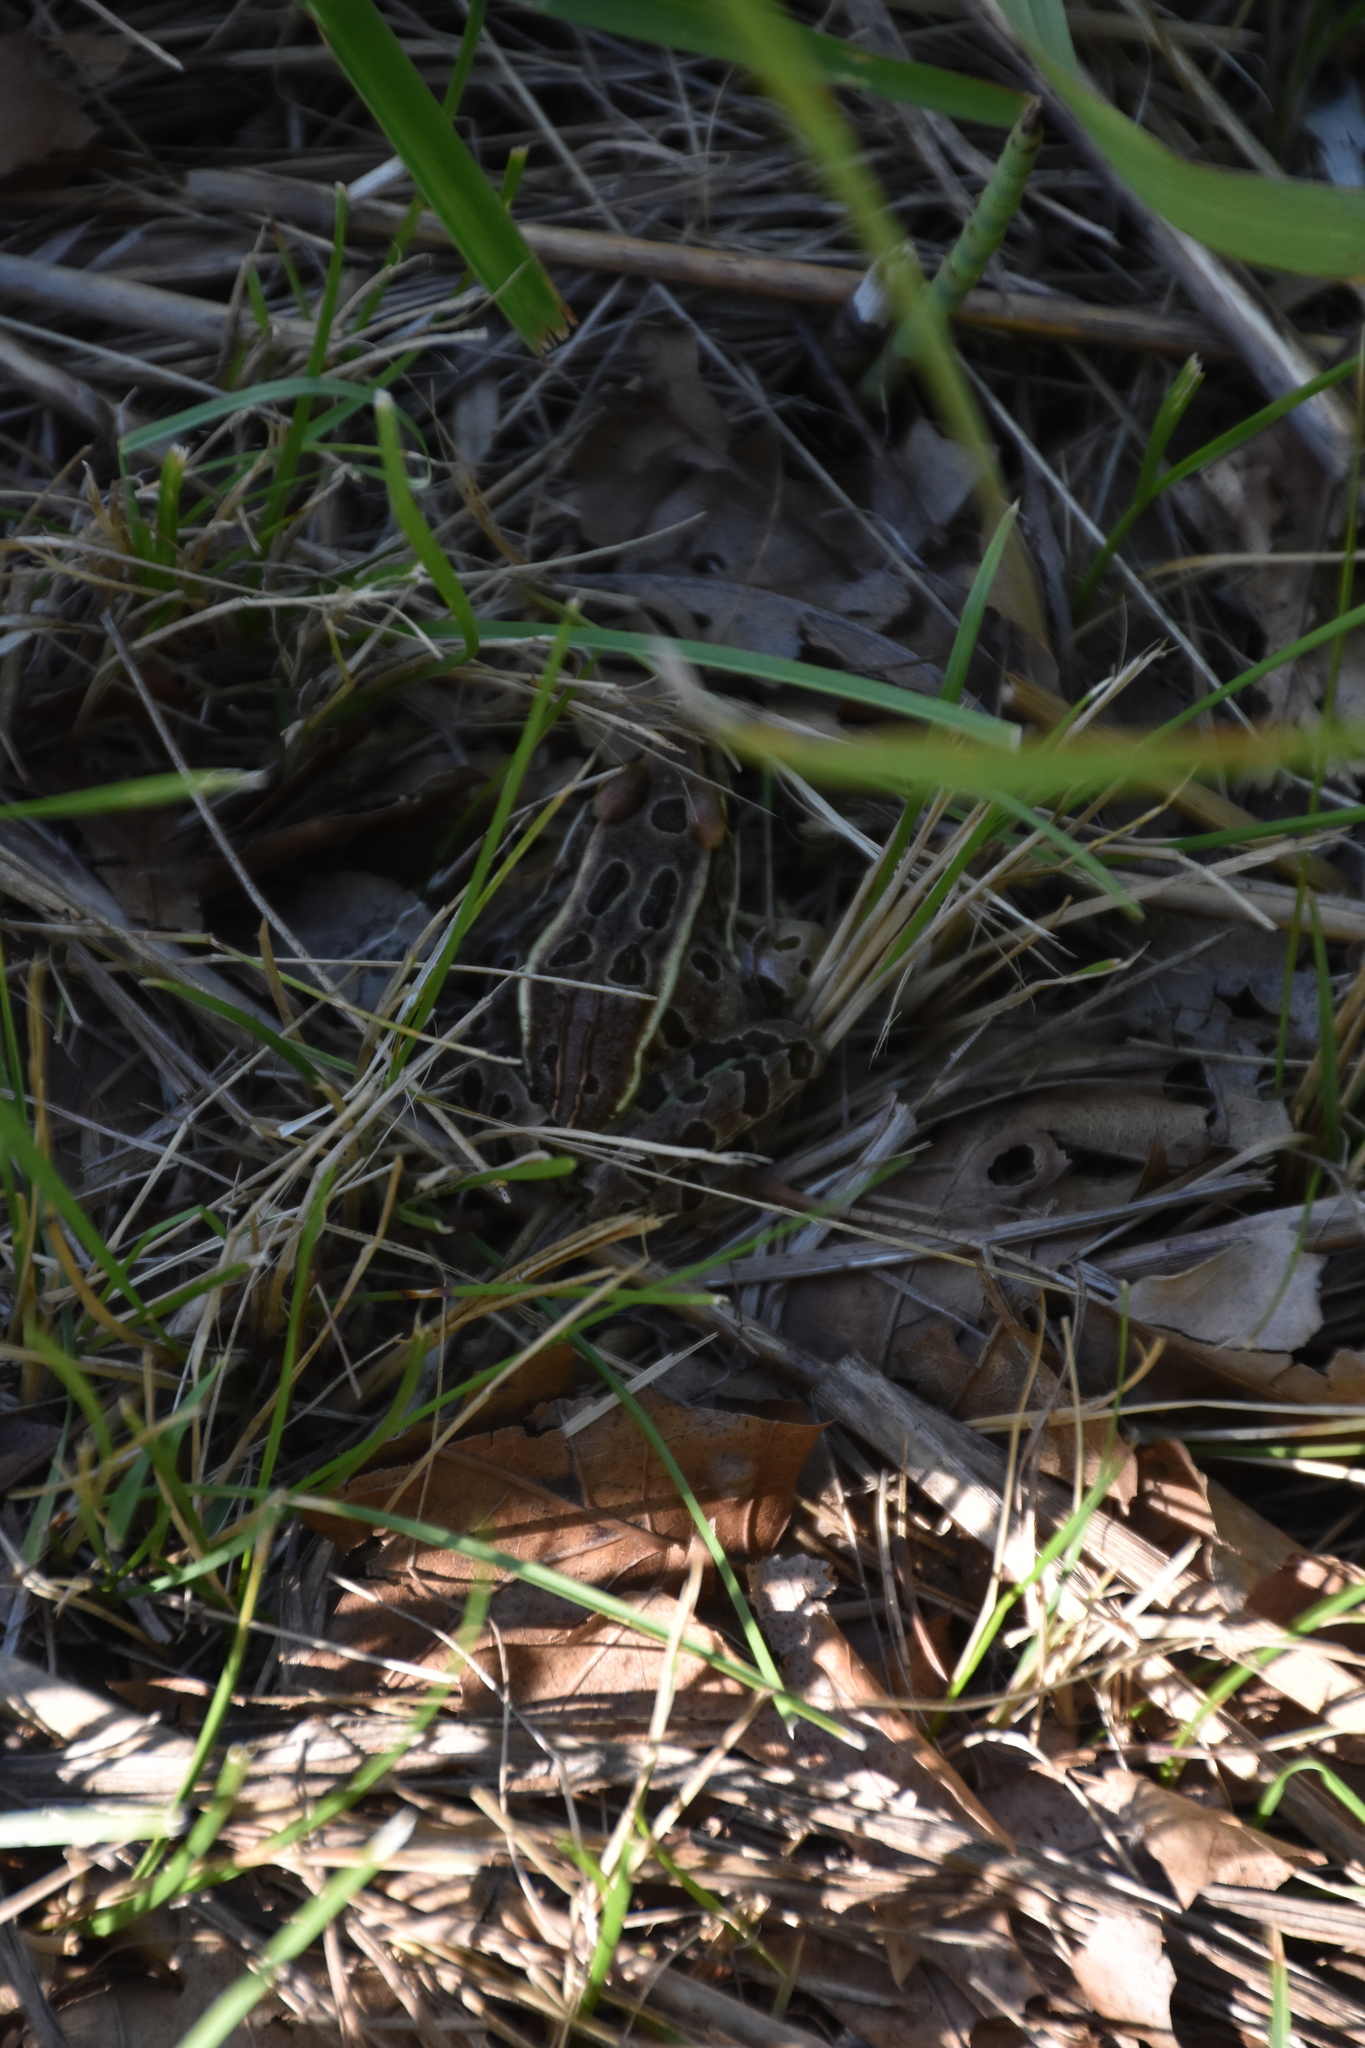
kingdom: Animalia
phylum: Chordata
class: Amphibia
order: Anura
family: Ranidae
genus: Lithobates
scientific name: Lithobates pipiens
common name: Northern leopard frog
